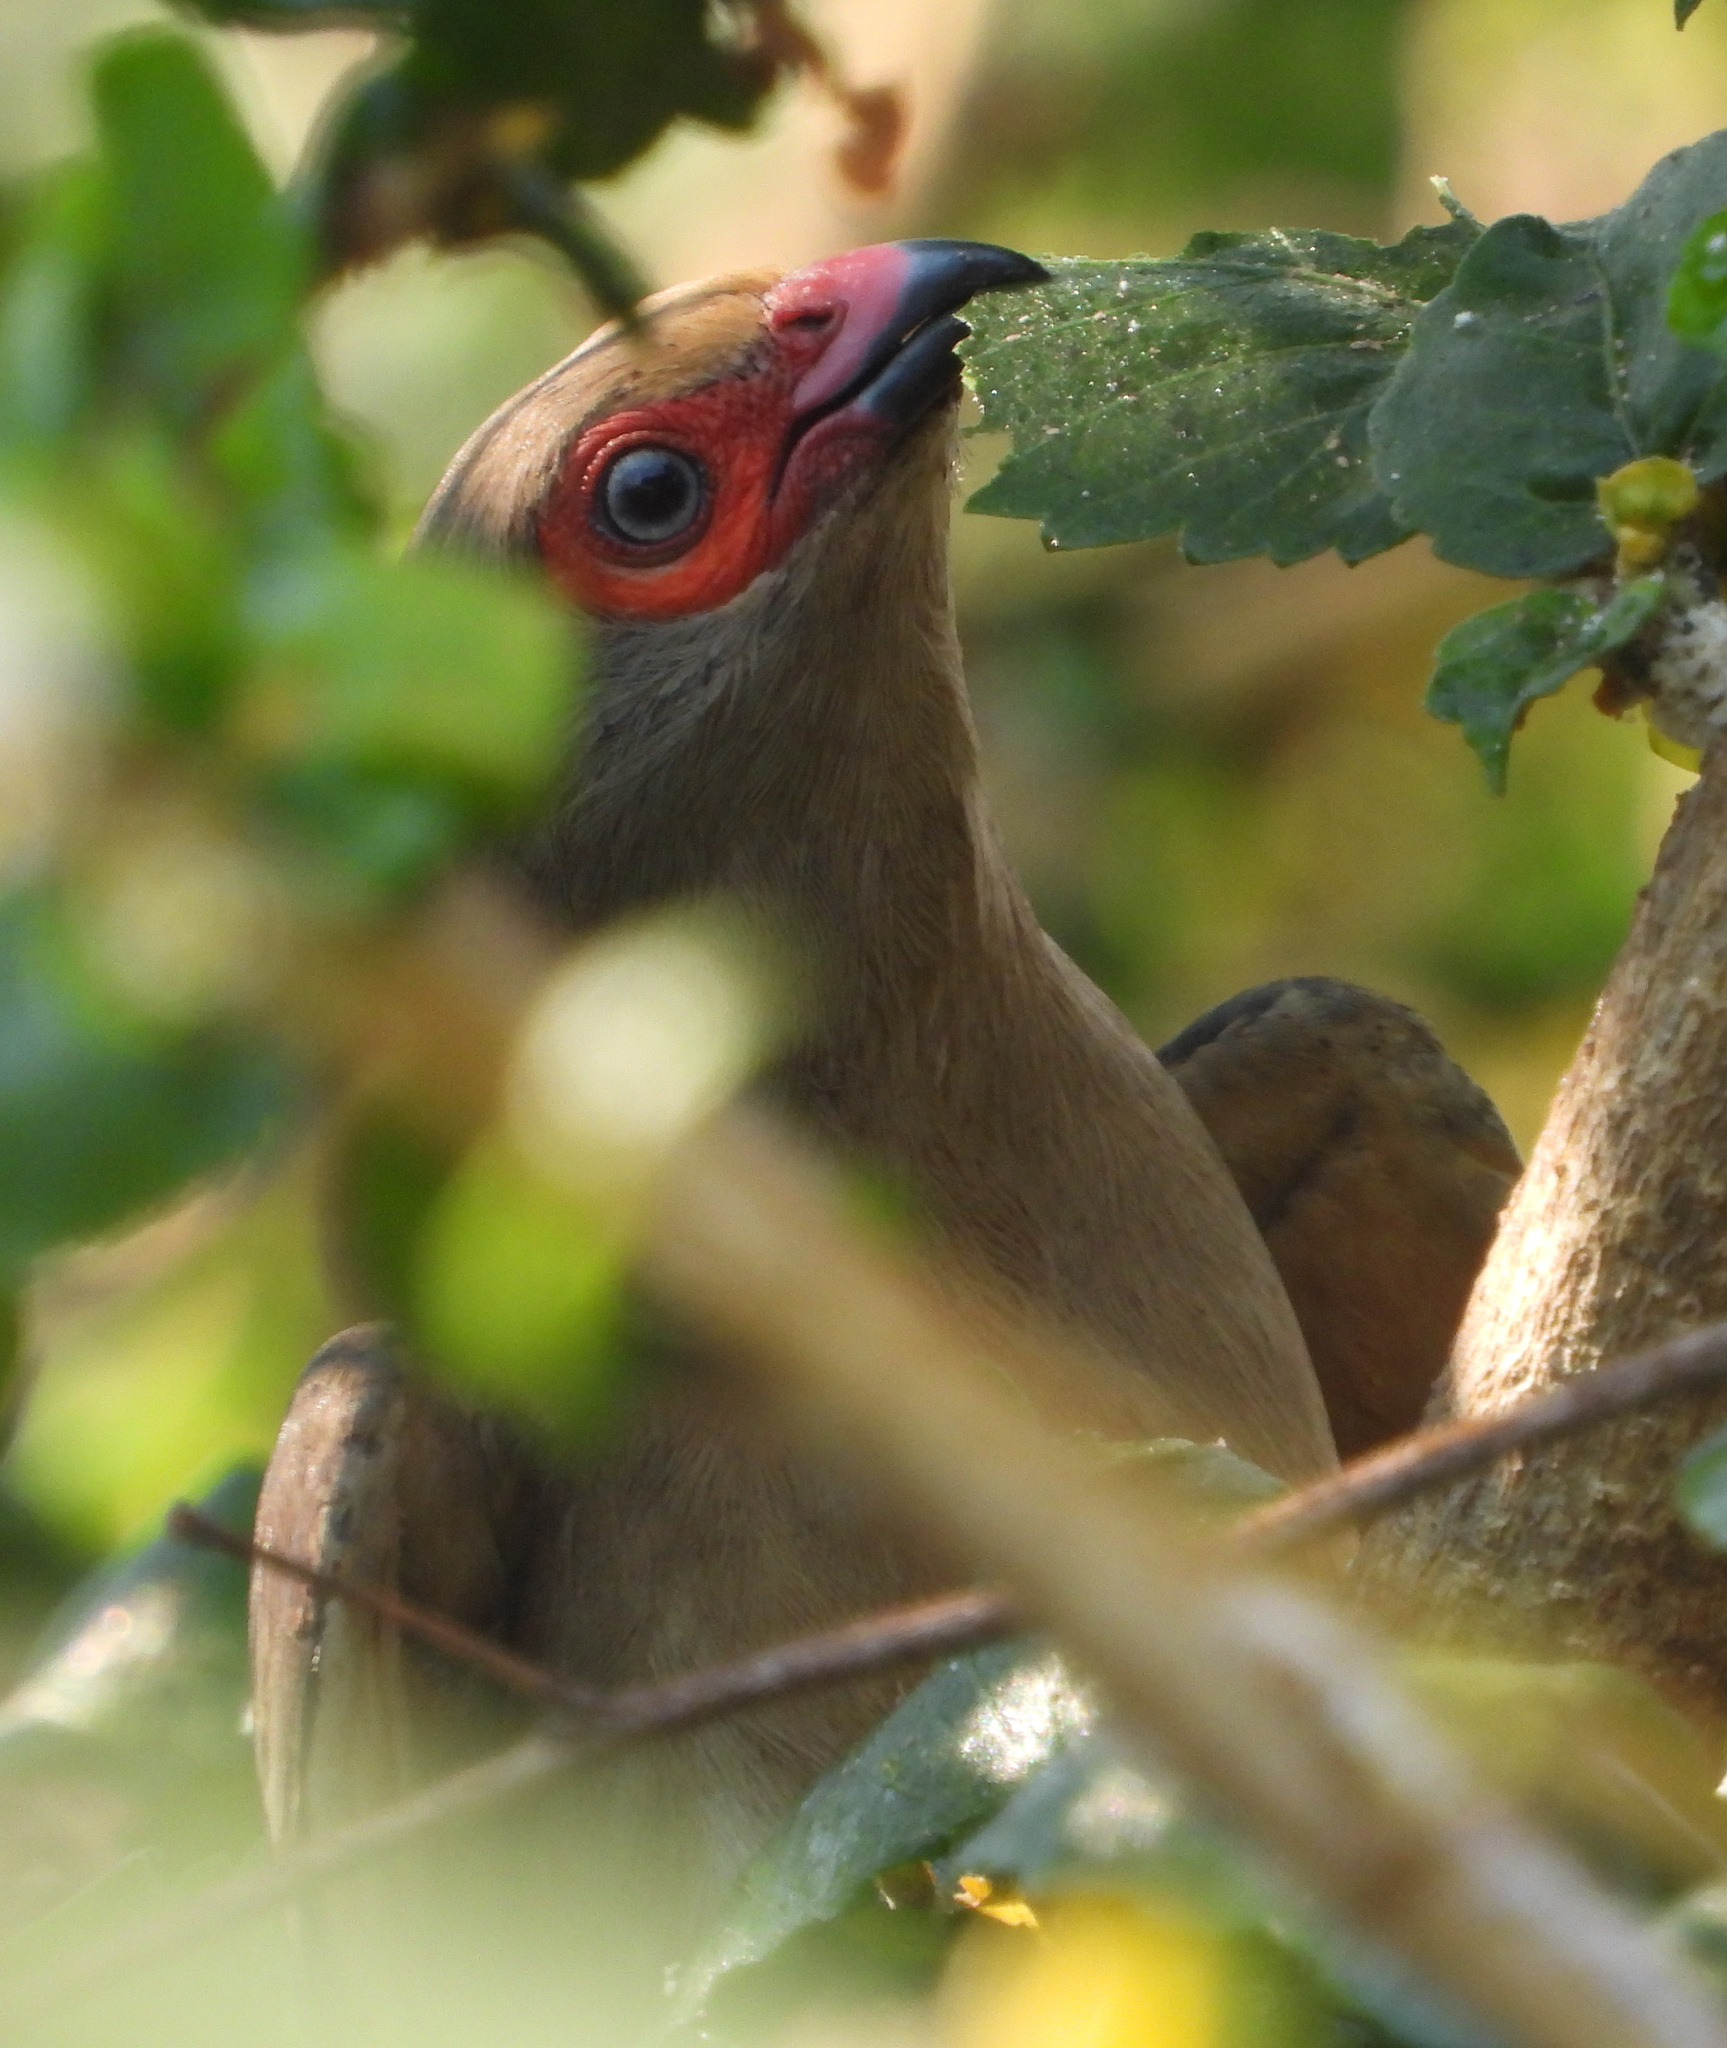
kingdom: Animalia
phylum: Chordata
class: Aves
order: Coliiformes
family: Coliidae
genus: Urocolius
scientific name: Urocolius indicus
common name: Red-faced mousebird
